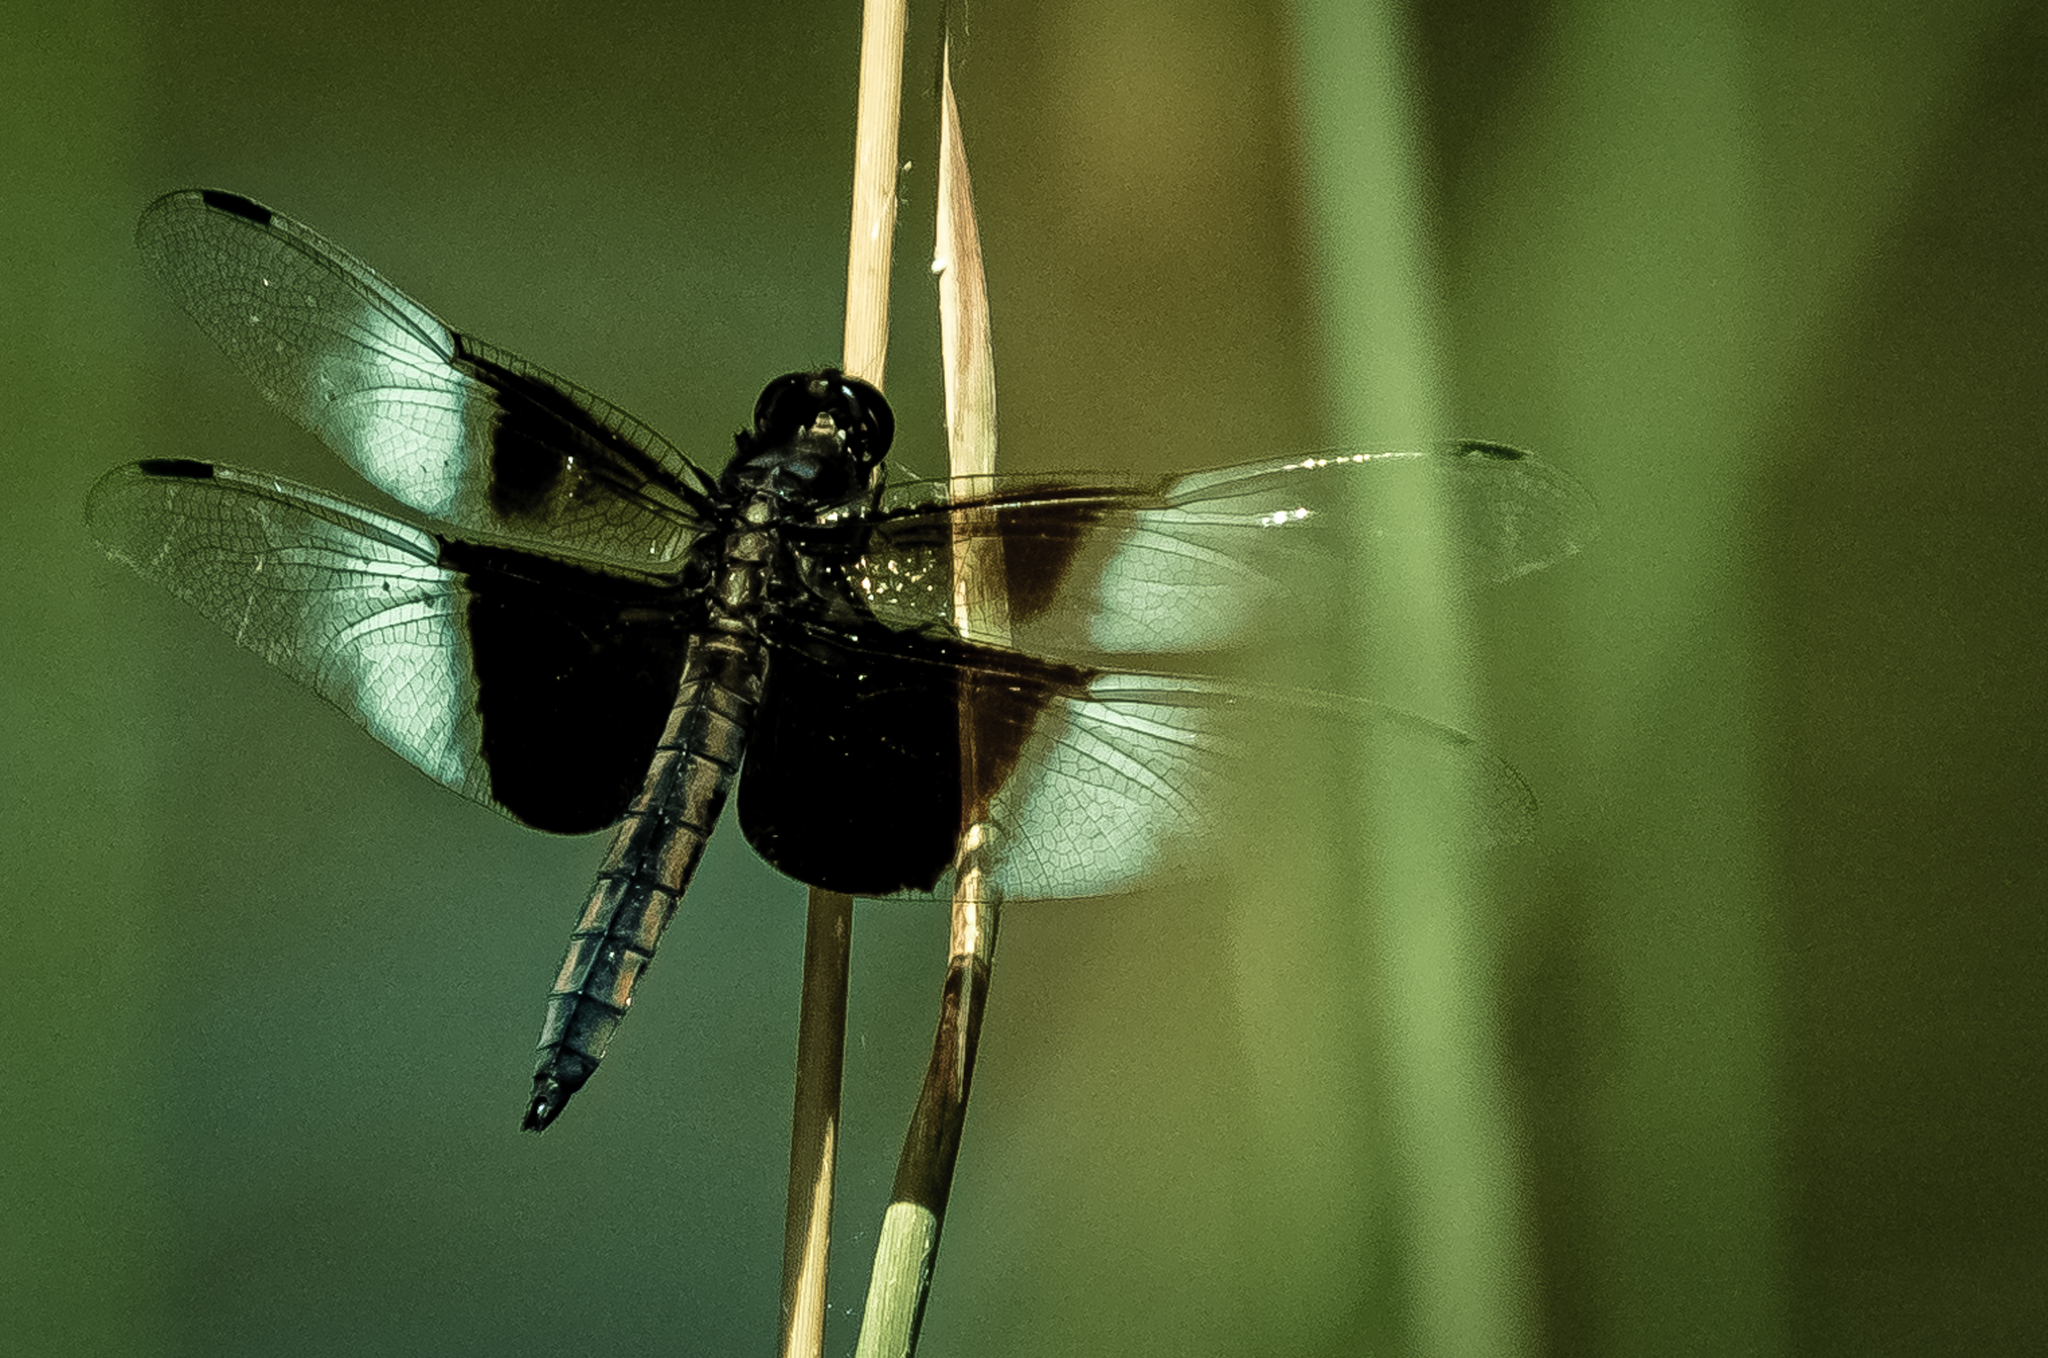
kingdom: Animalia
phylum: Arthropoda
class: Insecta
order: Odonata
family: Libellulidae
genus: Libellula
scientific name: Libellula luctuosa
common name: Widow skimmer
